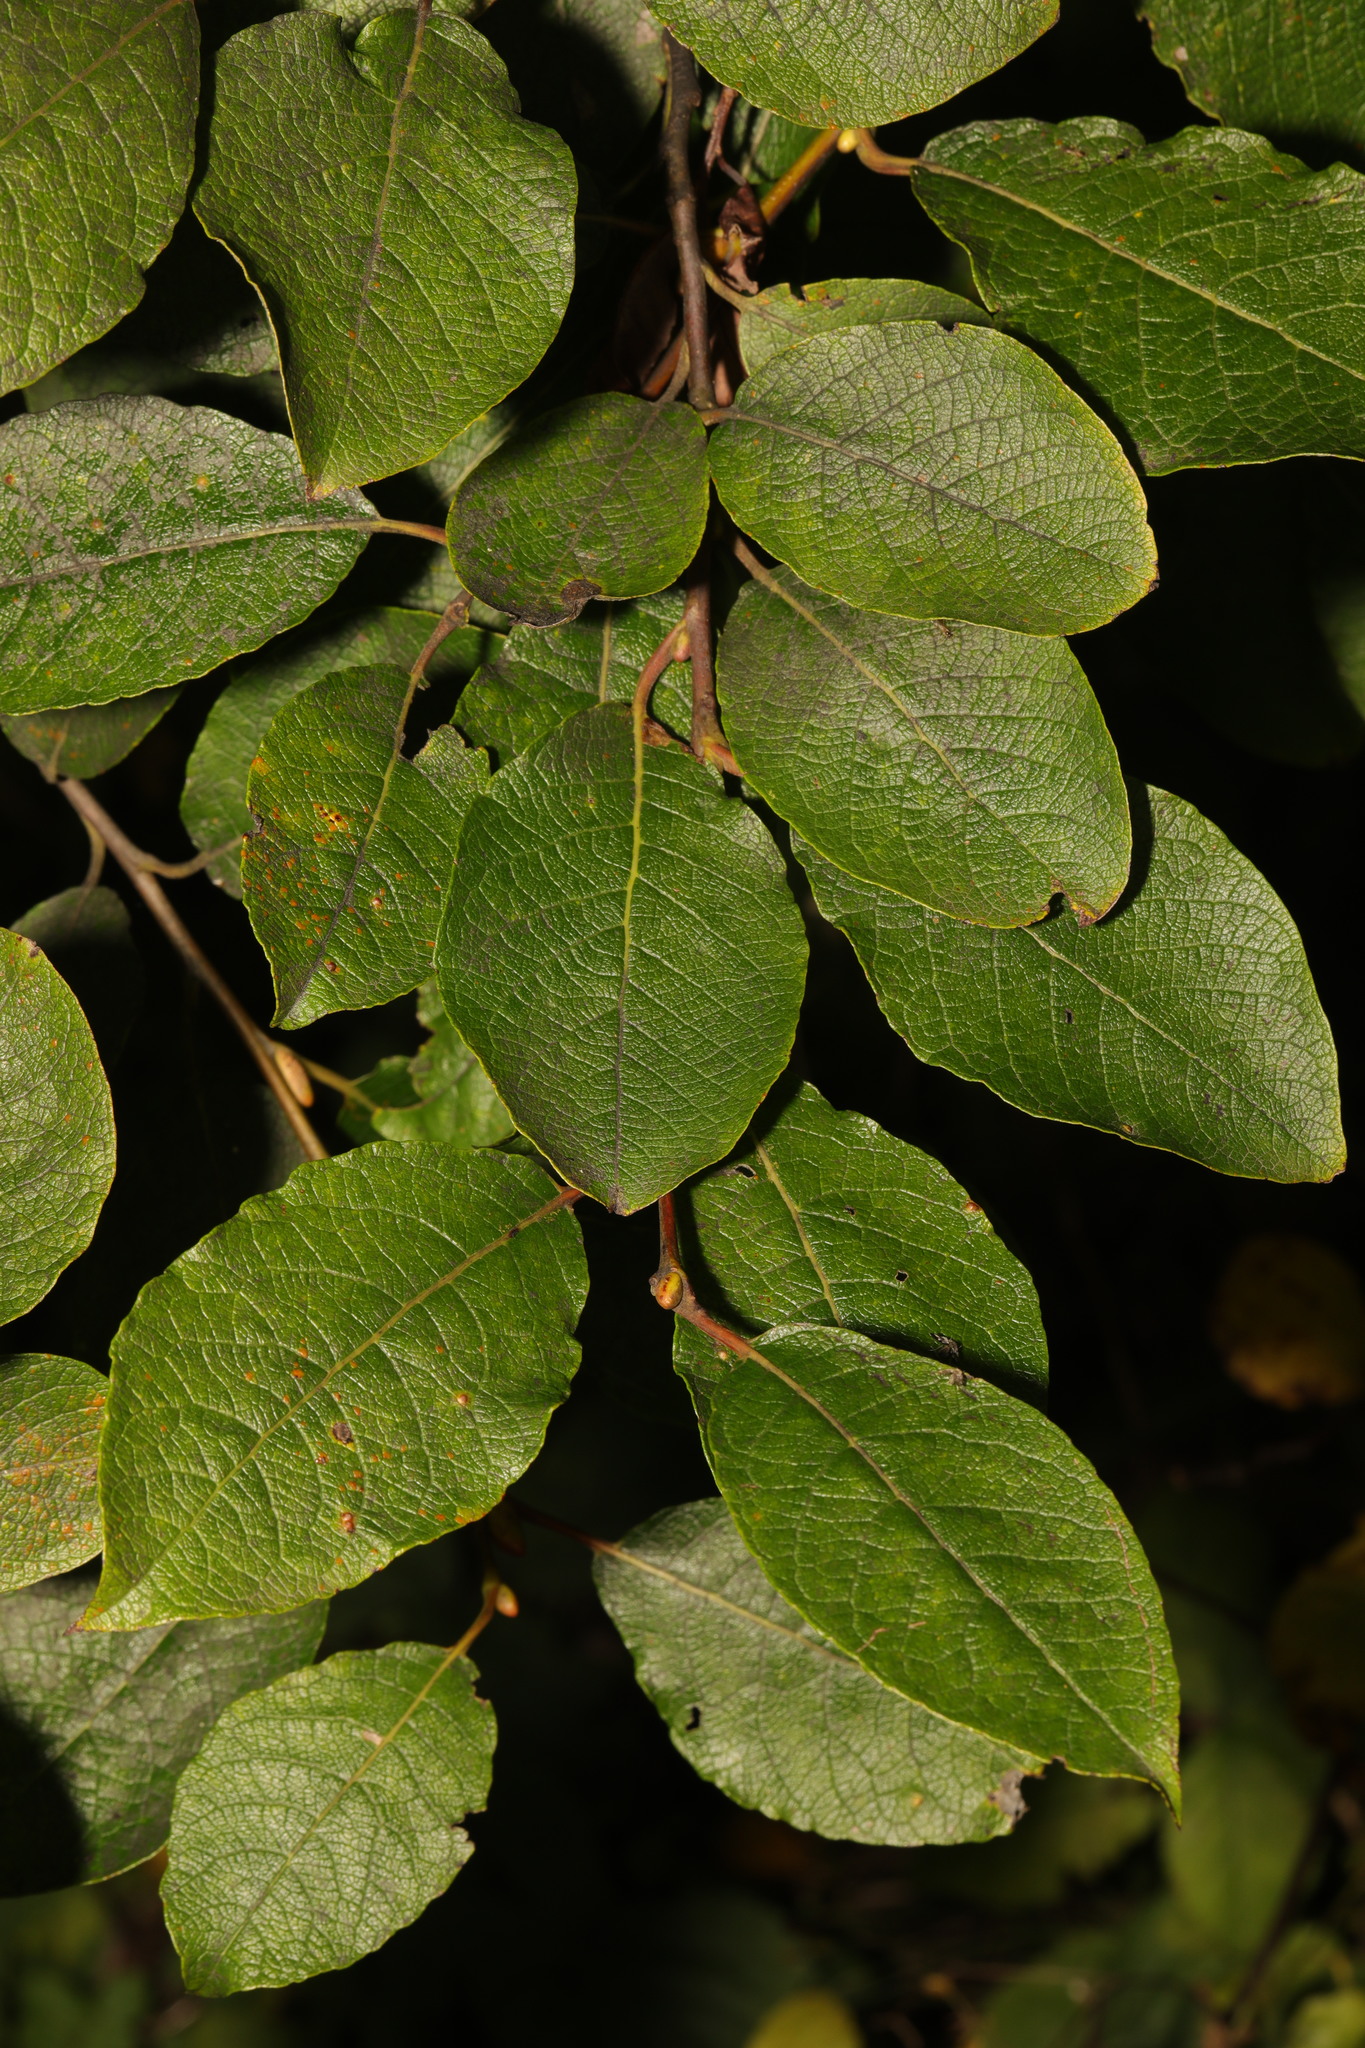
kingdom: Plantae
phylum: Tracheophyta
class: Magnoliopsida
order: Malpighiales
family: Salicaceae
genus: Salix
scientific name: Salix caprea
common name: Goat willow
